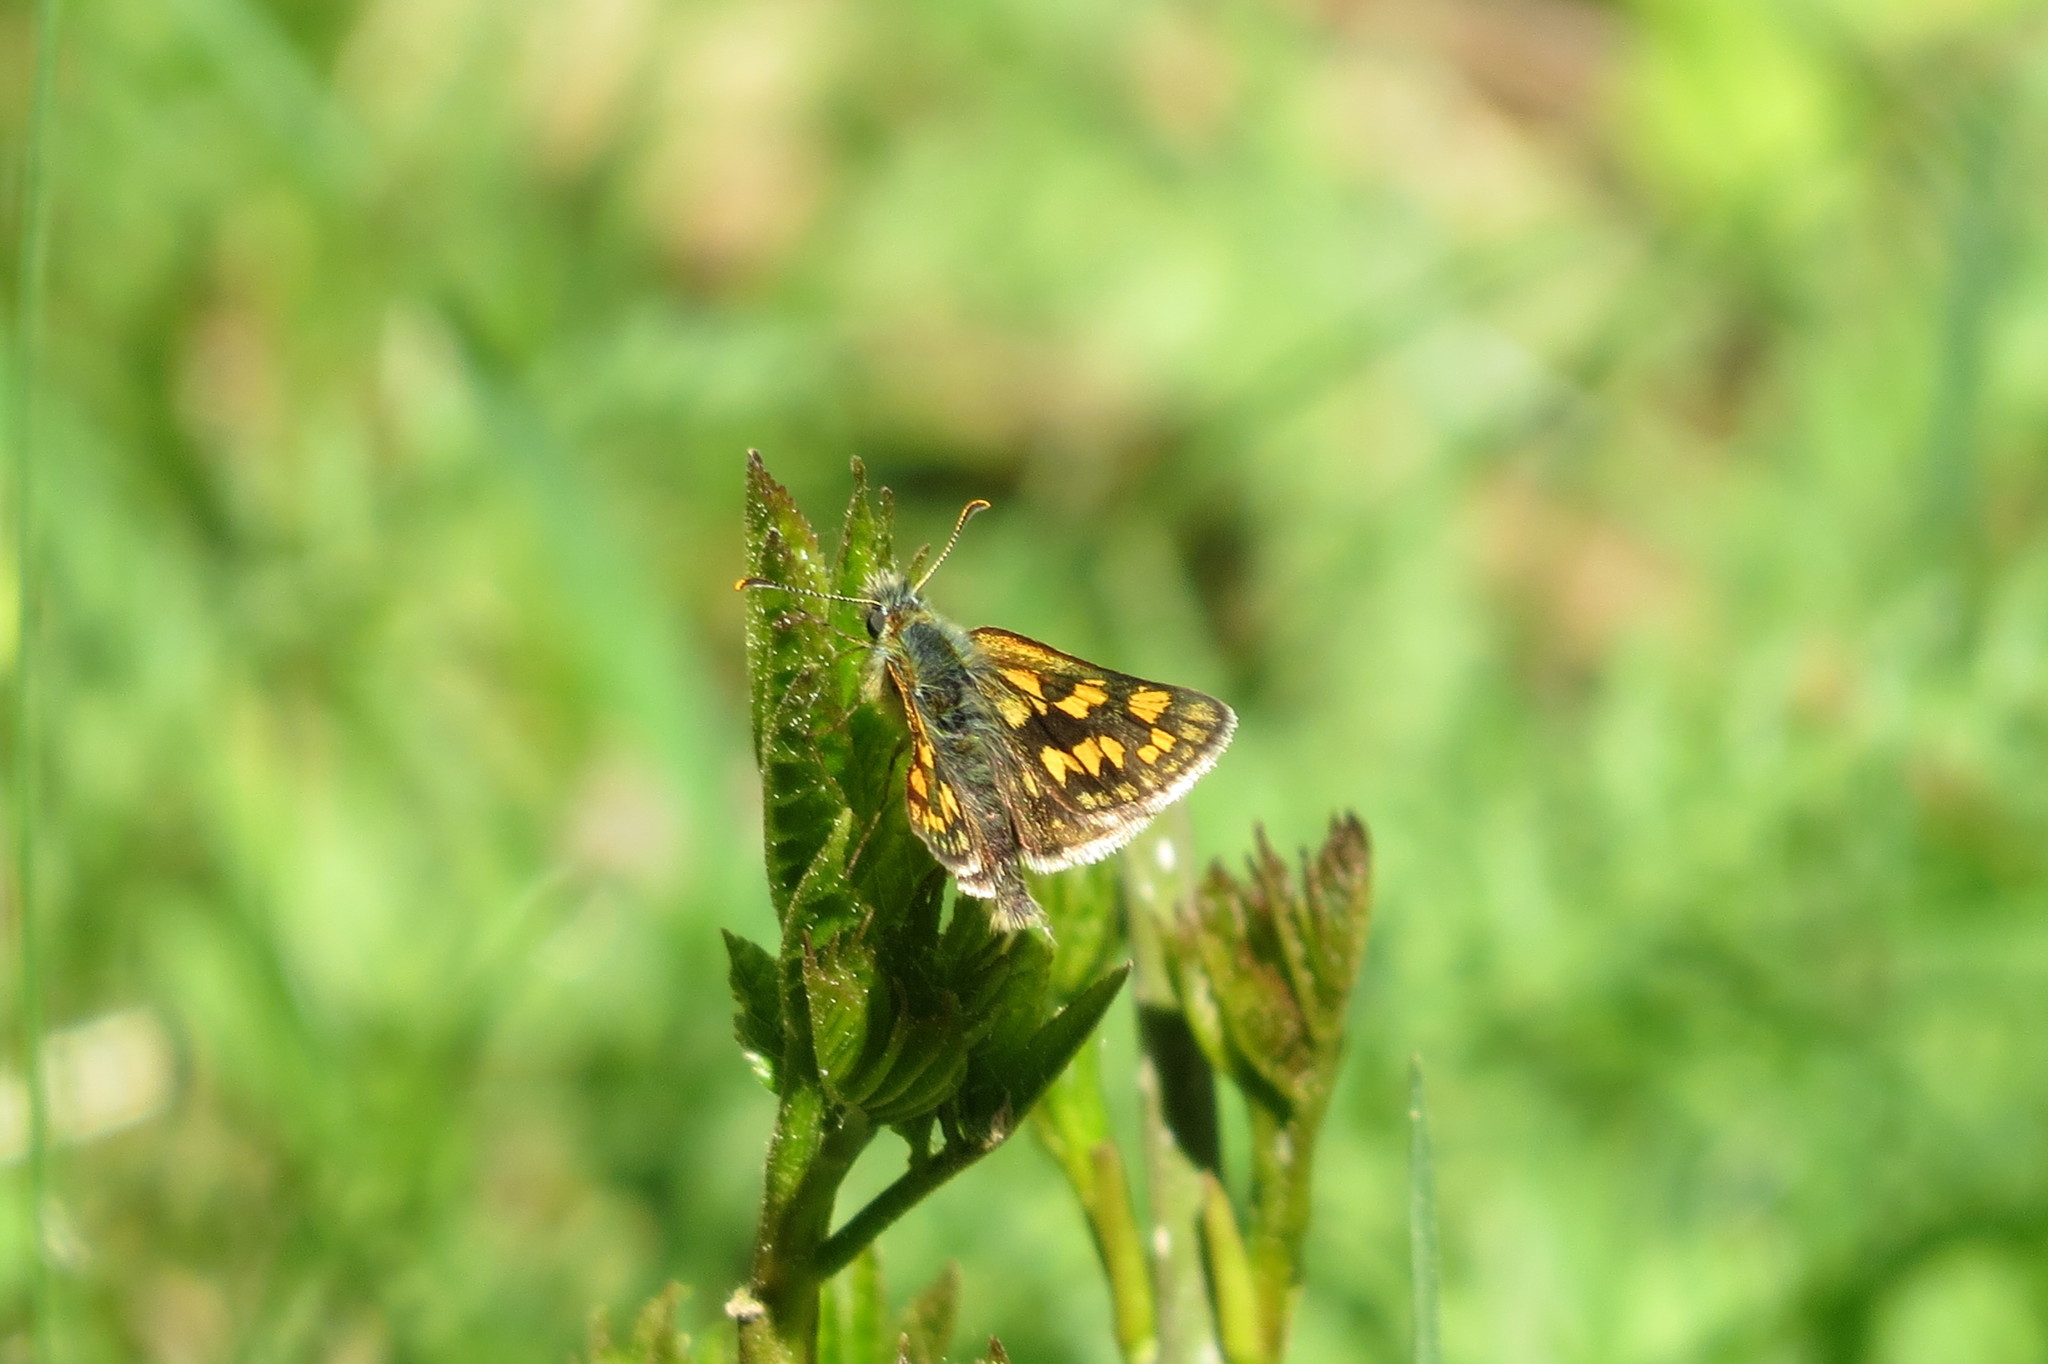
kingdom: Animalia
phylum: Arthropoda
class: Insecta
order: Lepidoptera
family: Hesperiidae
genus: Carterocephalus
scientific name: Carterocephalus palaemon
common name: Chequered skipper
